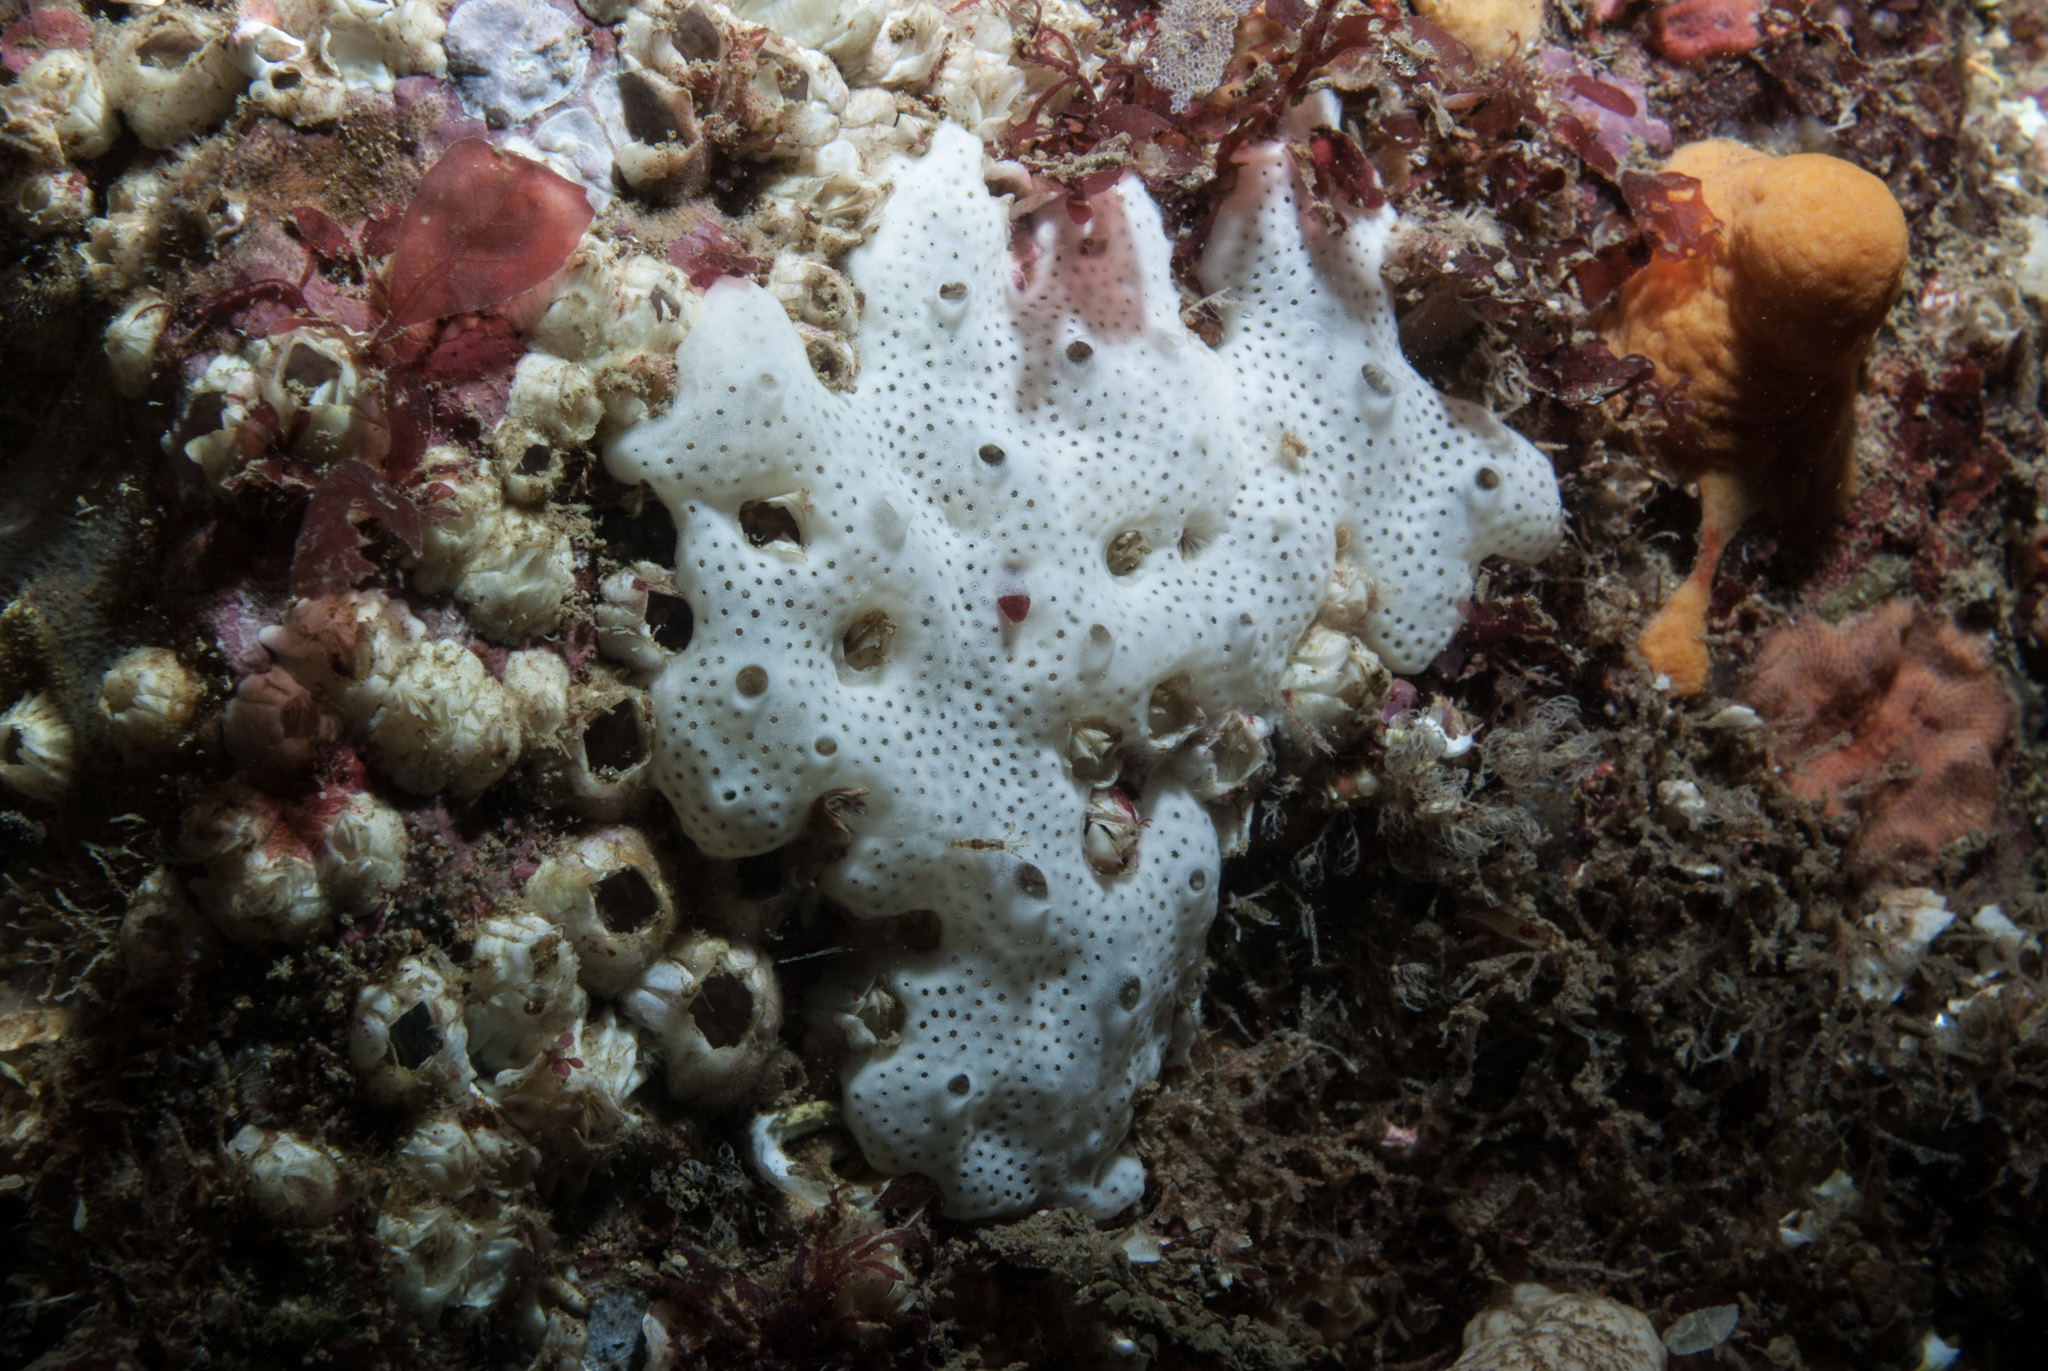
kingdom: Animalia
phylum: Chordata
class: Ascidiacea
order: Aplousobranchia
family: Didemnidae
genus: Lissoclinum
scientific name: Lissoclinum perforatum
